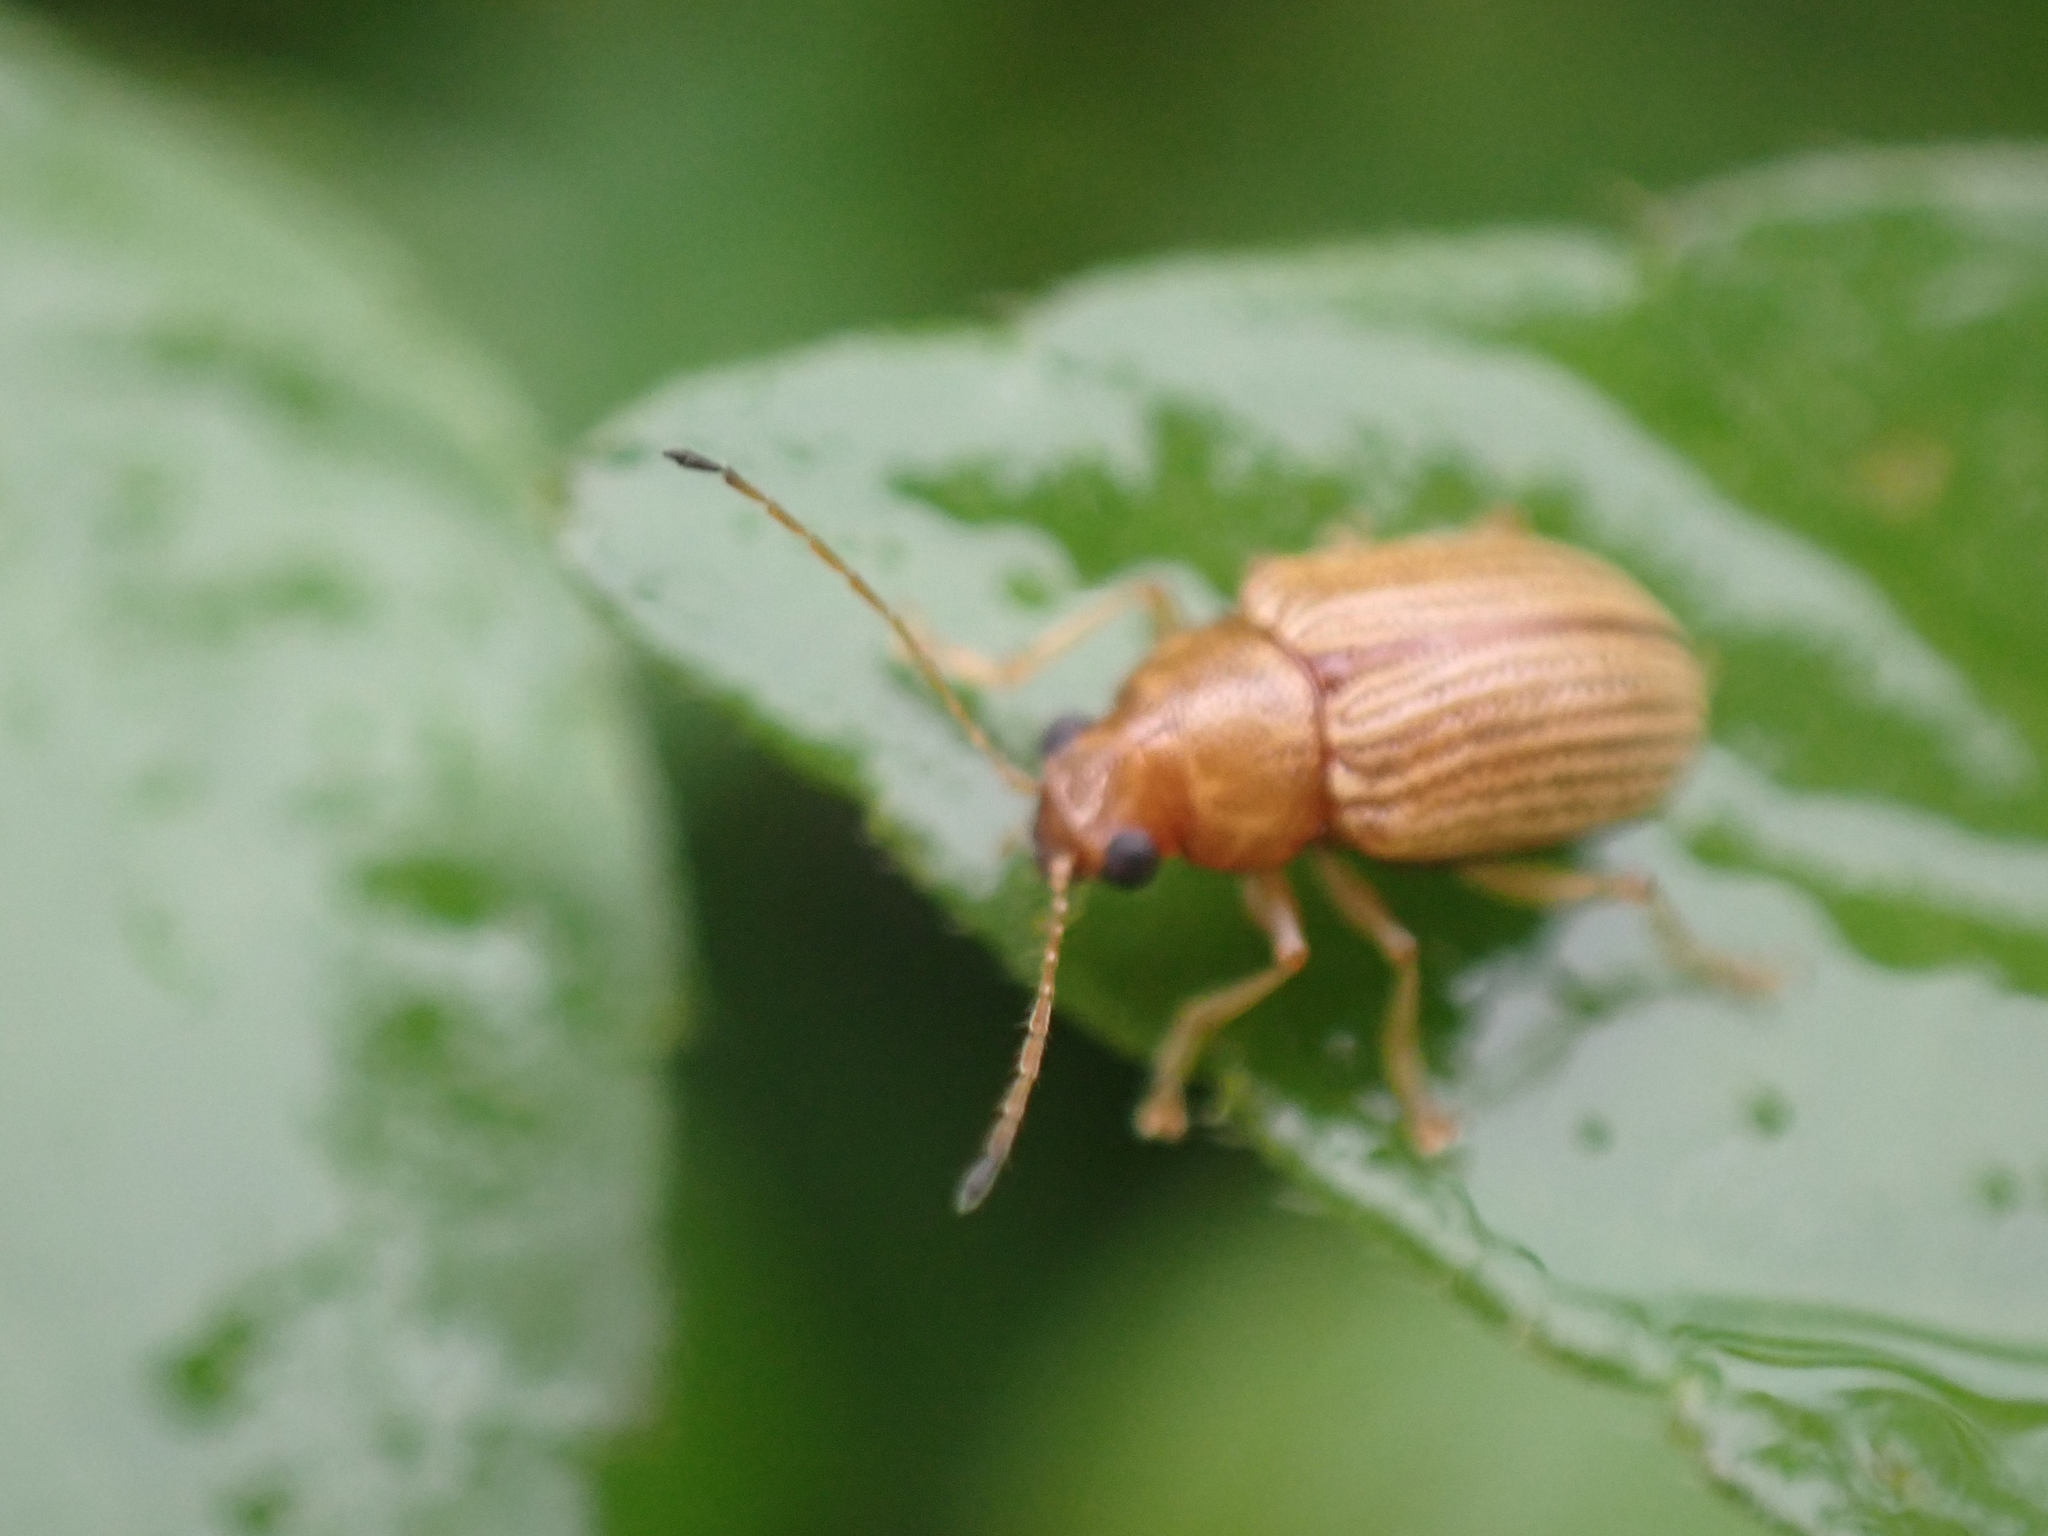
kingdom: Animalia
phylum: Arthropoda
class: Insecta
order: Coleoptera
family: Chrysomelidae
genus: Colaspis
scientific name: Colaspis brunnea
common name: Grape colaspis
